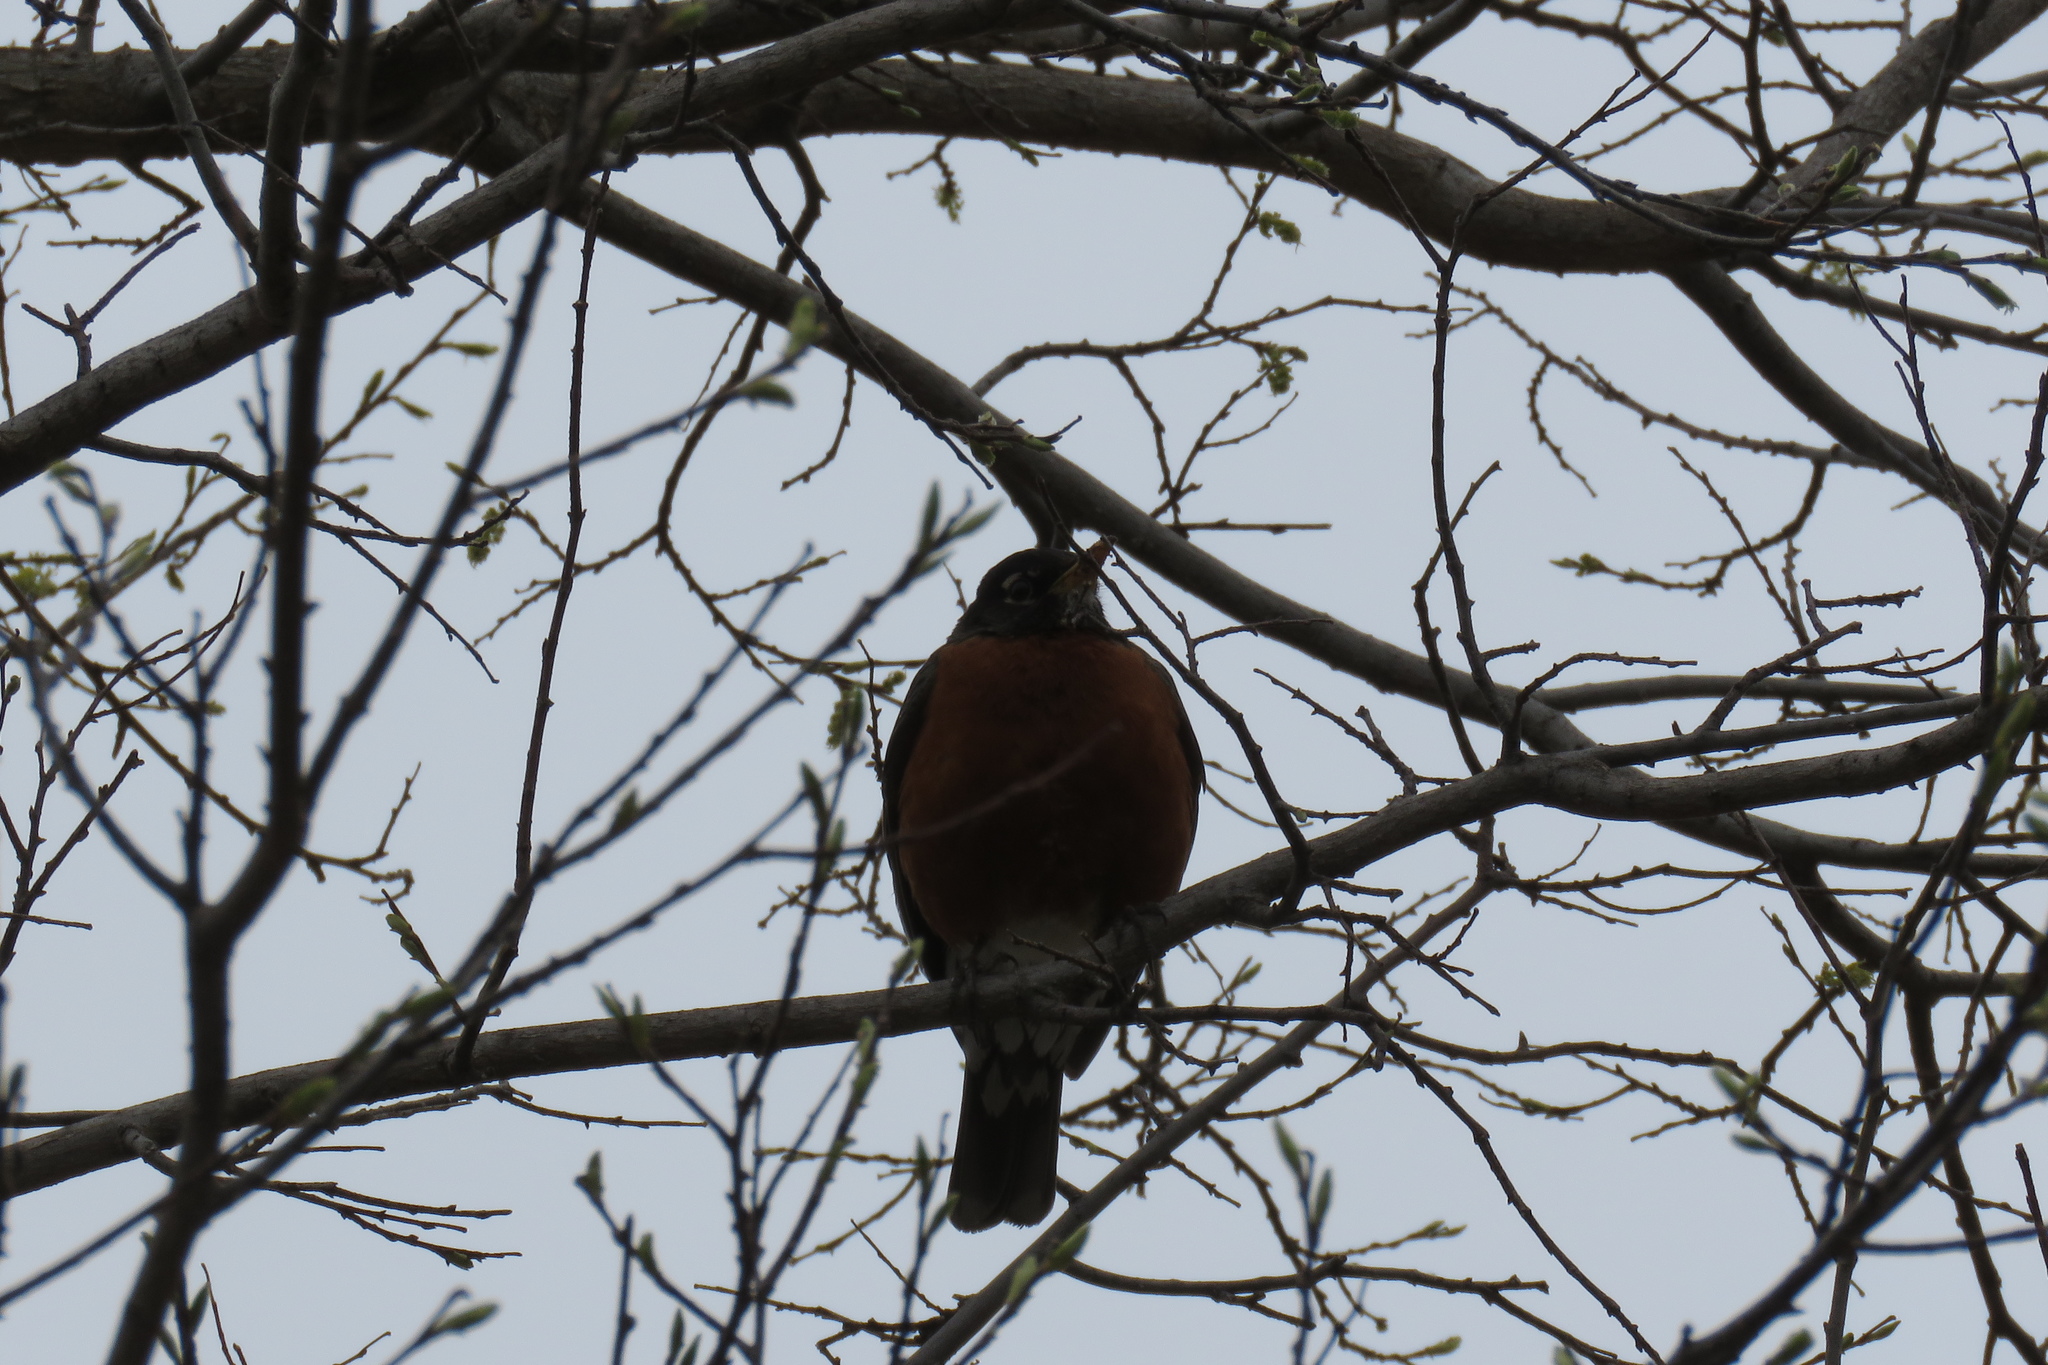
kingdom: Animalia
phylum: Chordata
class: Aves
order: Passeriformes
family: Turdidae
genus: Turdus
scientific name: Turdus migratorius
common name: American robin
